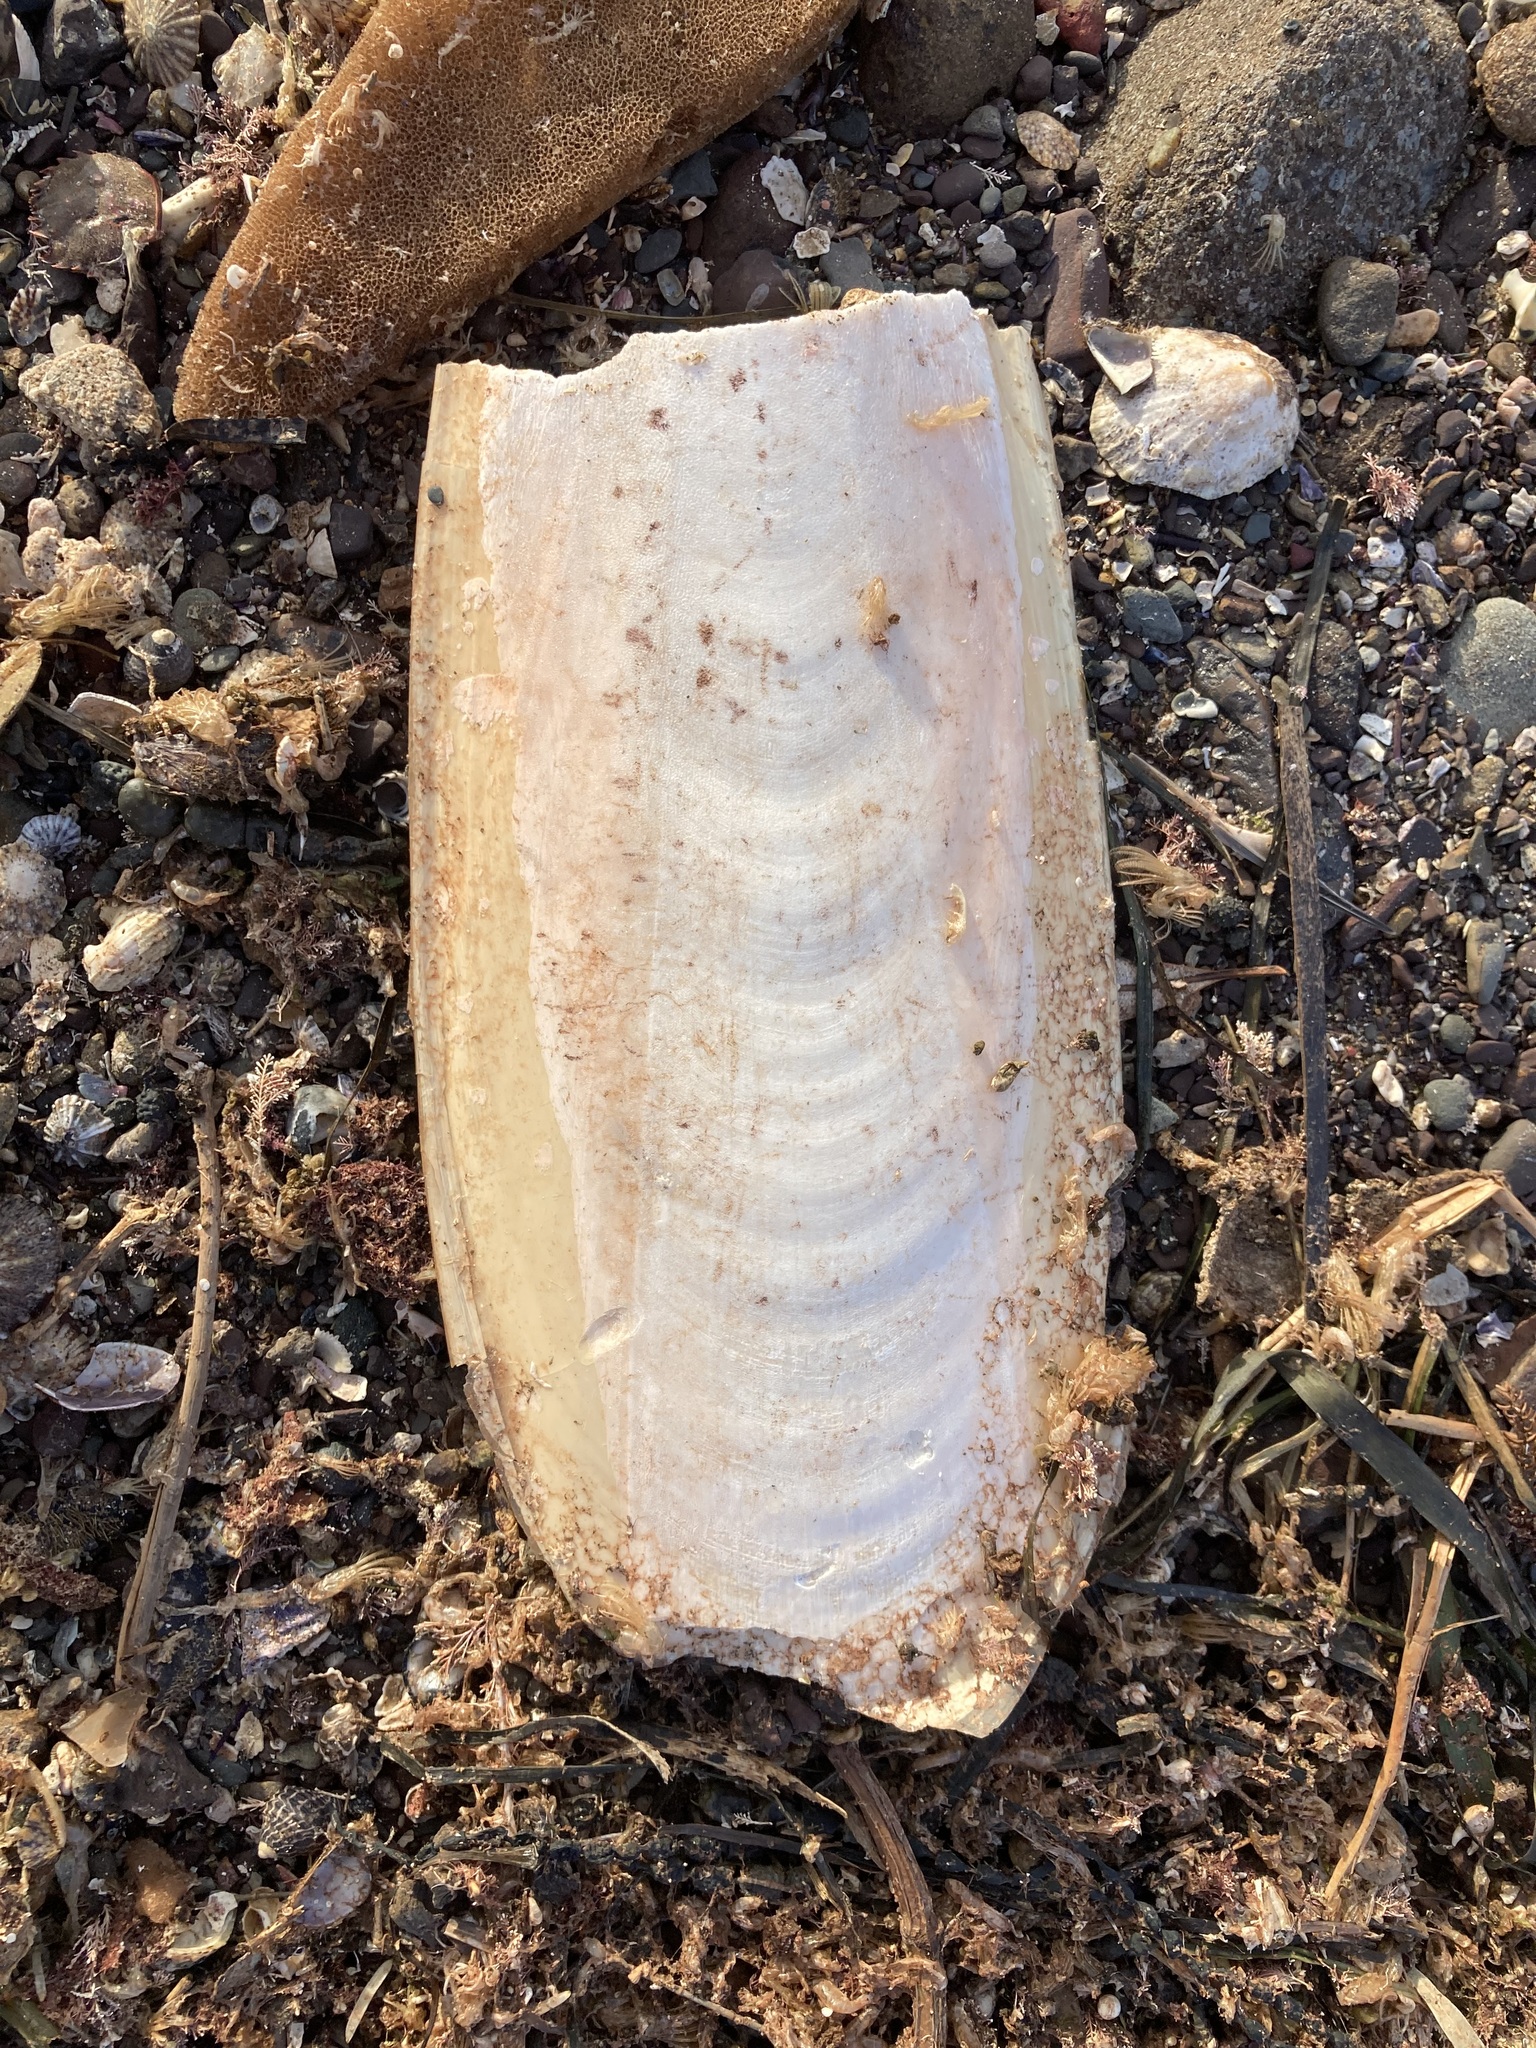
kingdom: Animalia
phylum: Mollusca
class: Cephalopoda
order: Sepiida
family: Sepiidae
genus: Ascarosepion
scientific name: Ascarosepion apama
